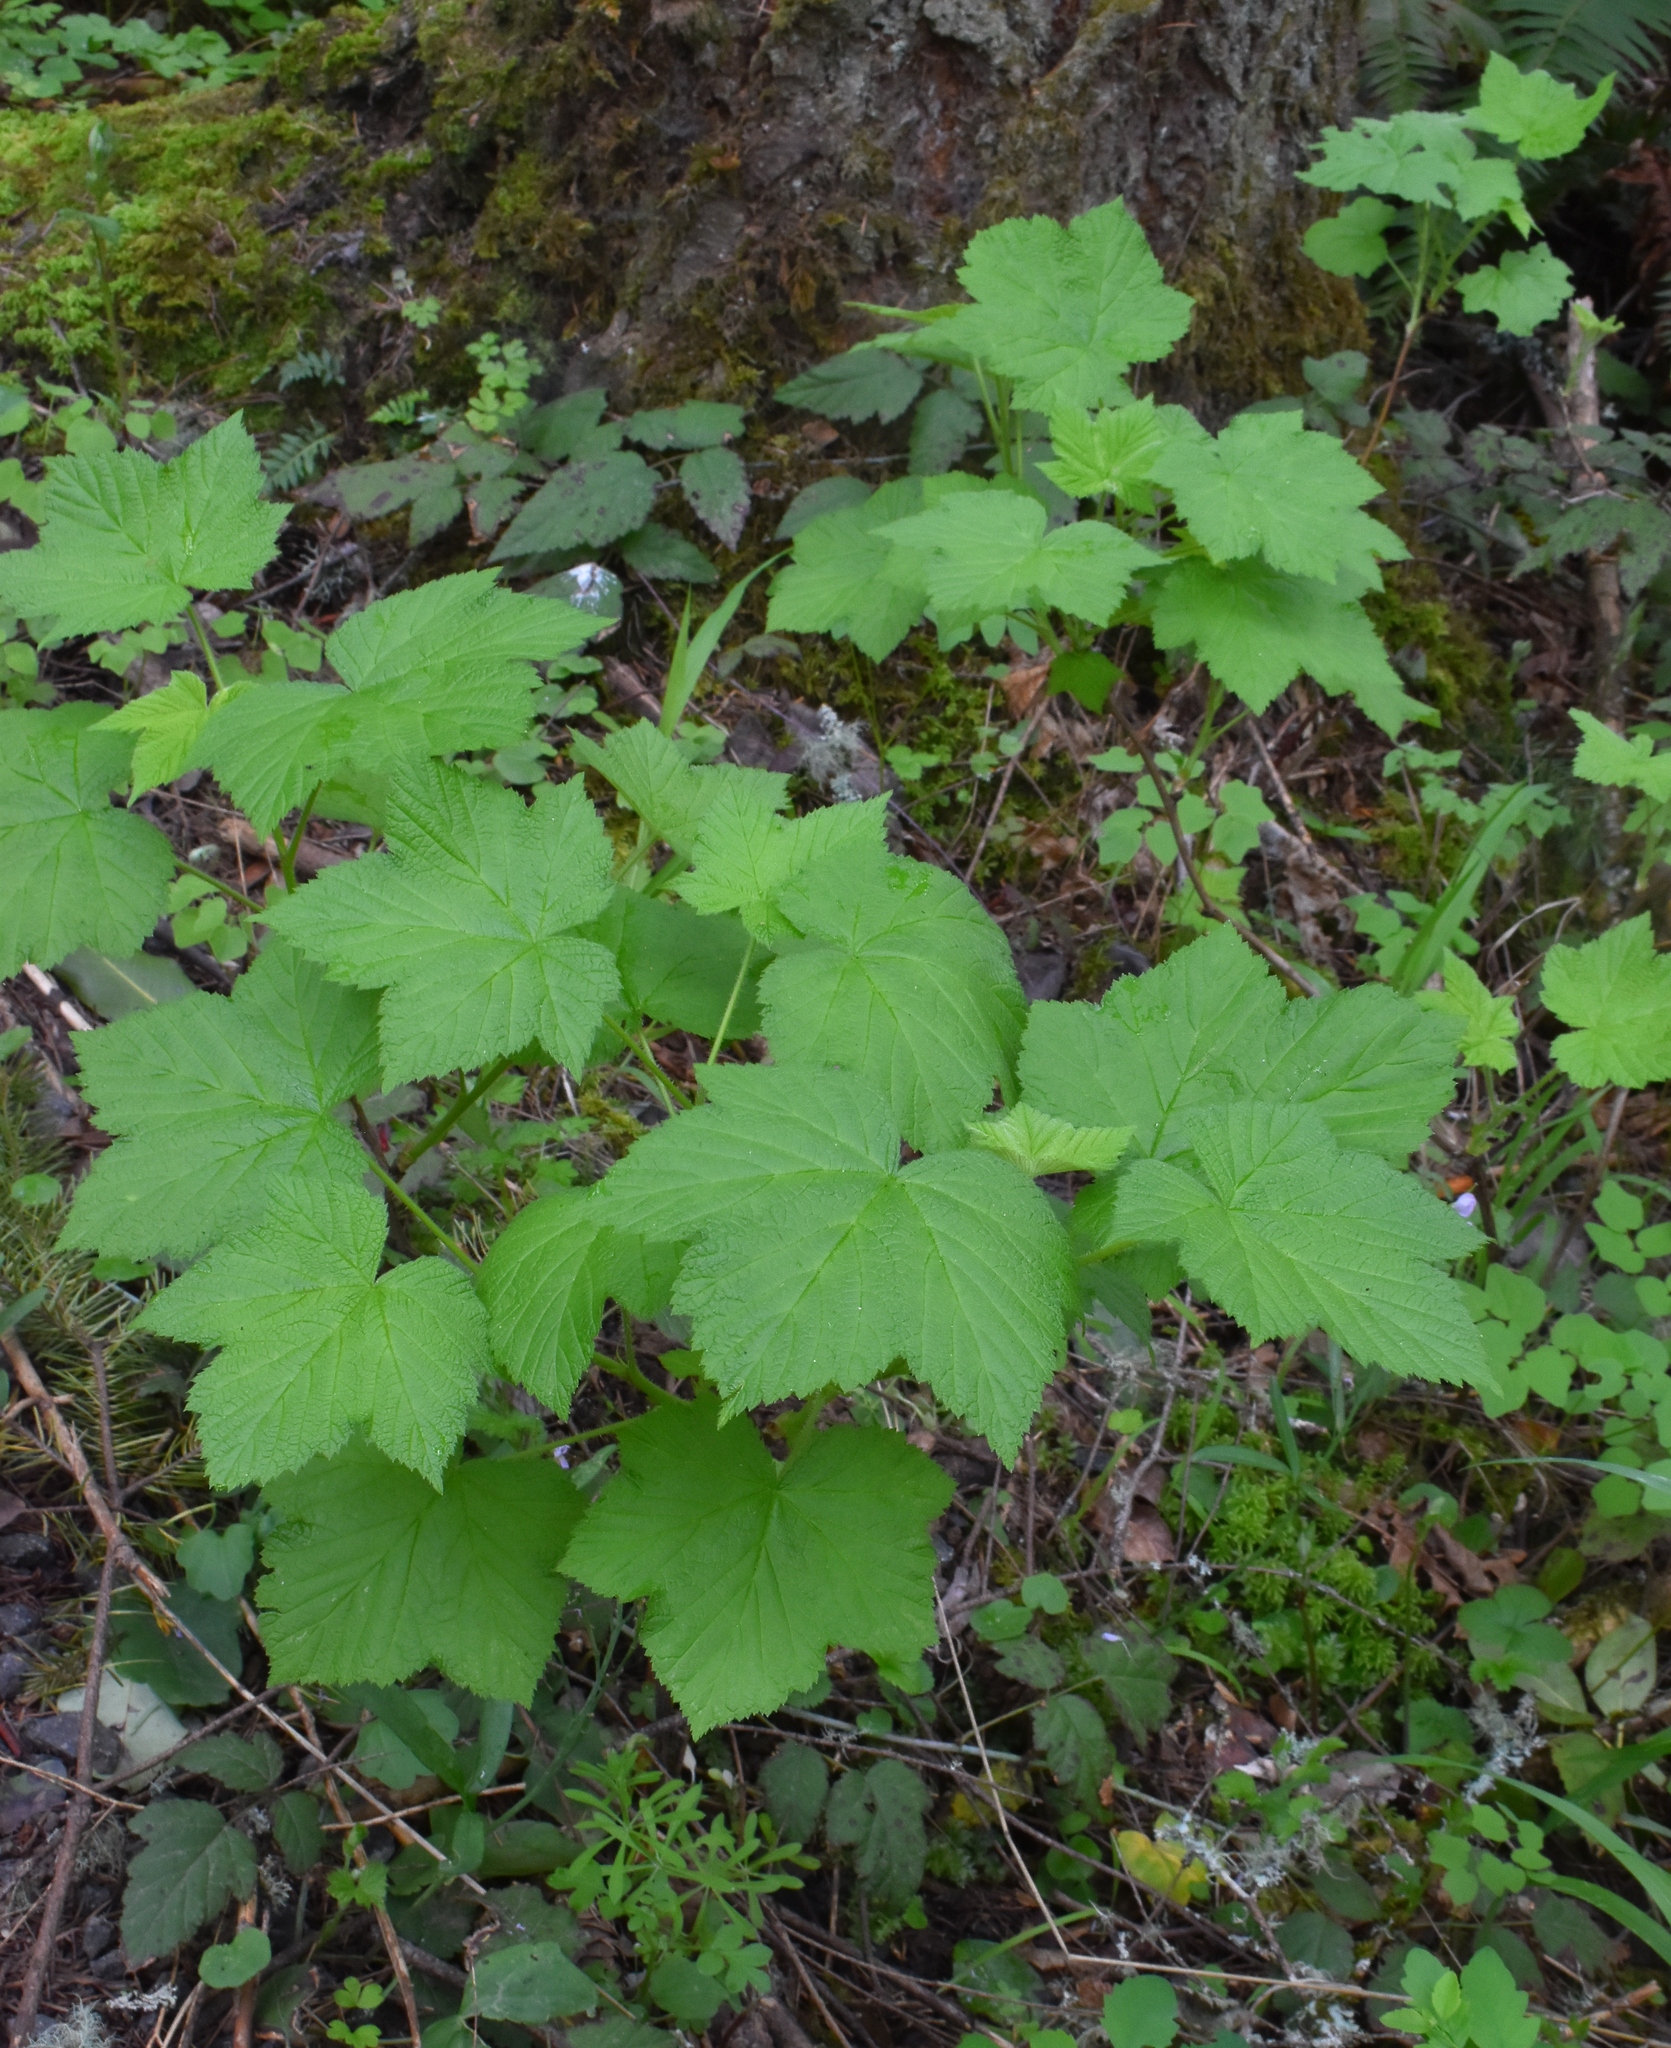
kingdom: Plantae
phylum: Tracheophyta
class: Magnoliopsida
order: Rosales
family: Rosaceae
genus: Rubus
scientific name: Rubus parviflorus
